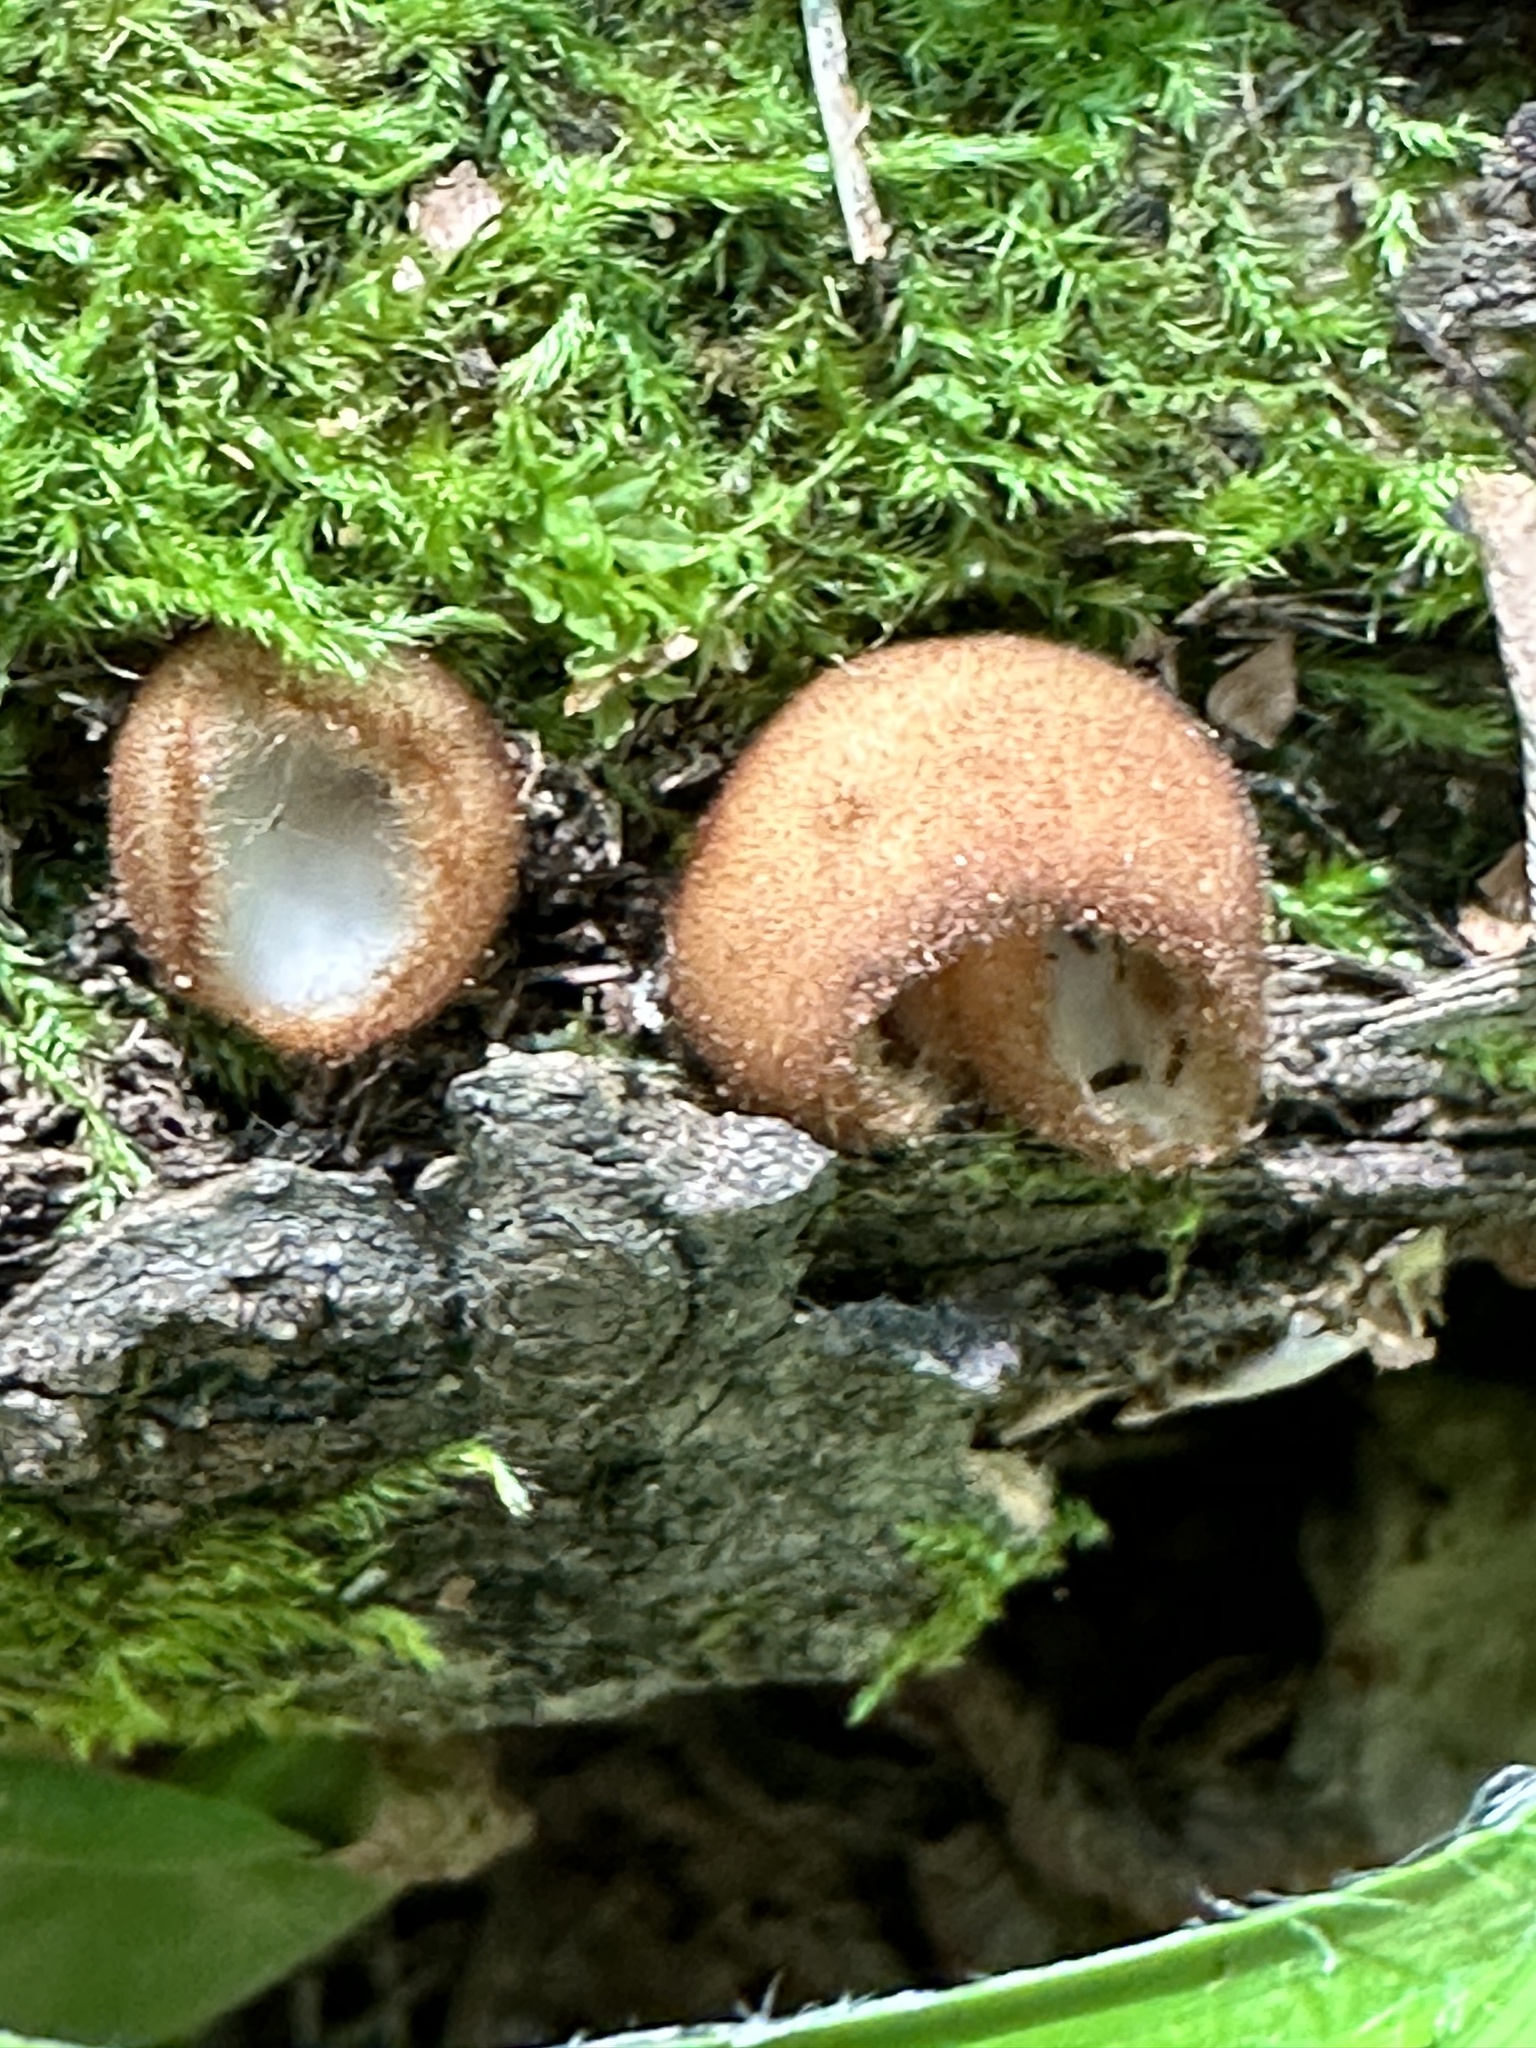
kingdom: Fungi
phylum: Ascomycota
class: Pezizomycetes
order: Pezizales
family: Pyronemataceae
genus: Humaria
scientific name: Humaria hemisphaerica
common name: Glazed cup
